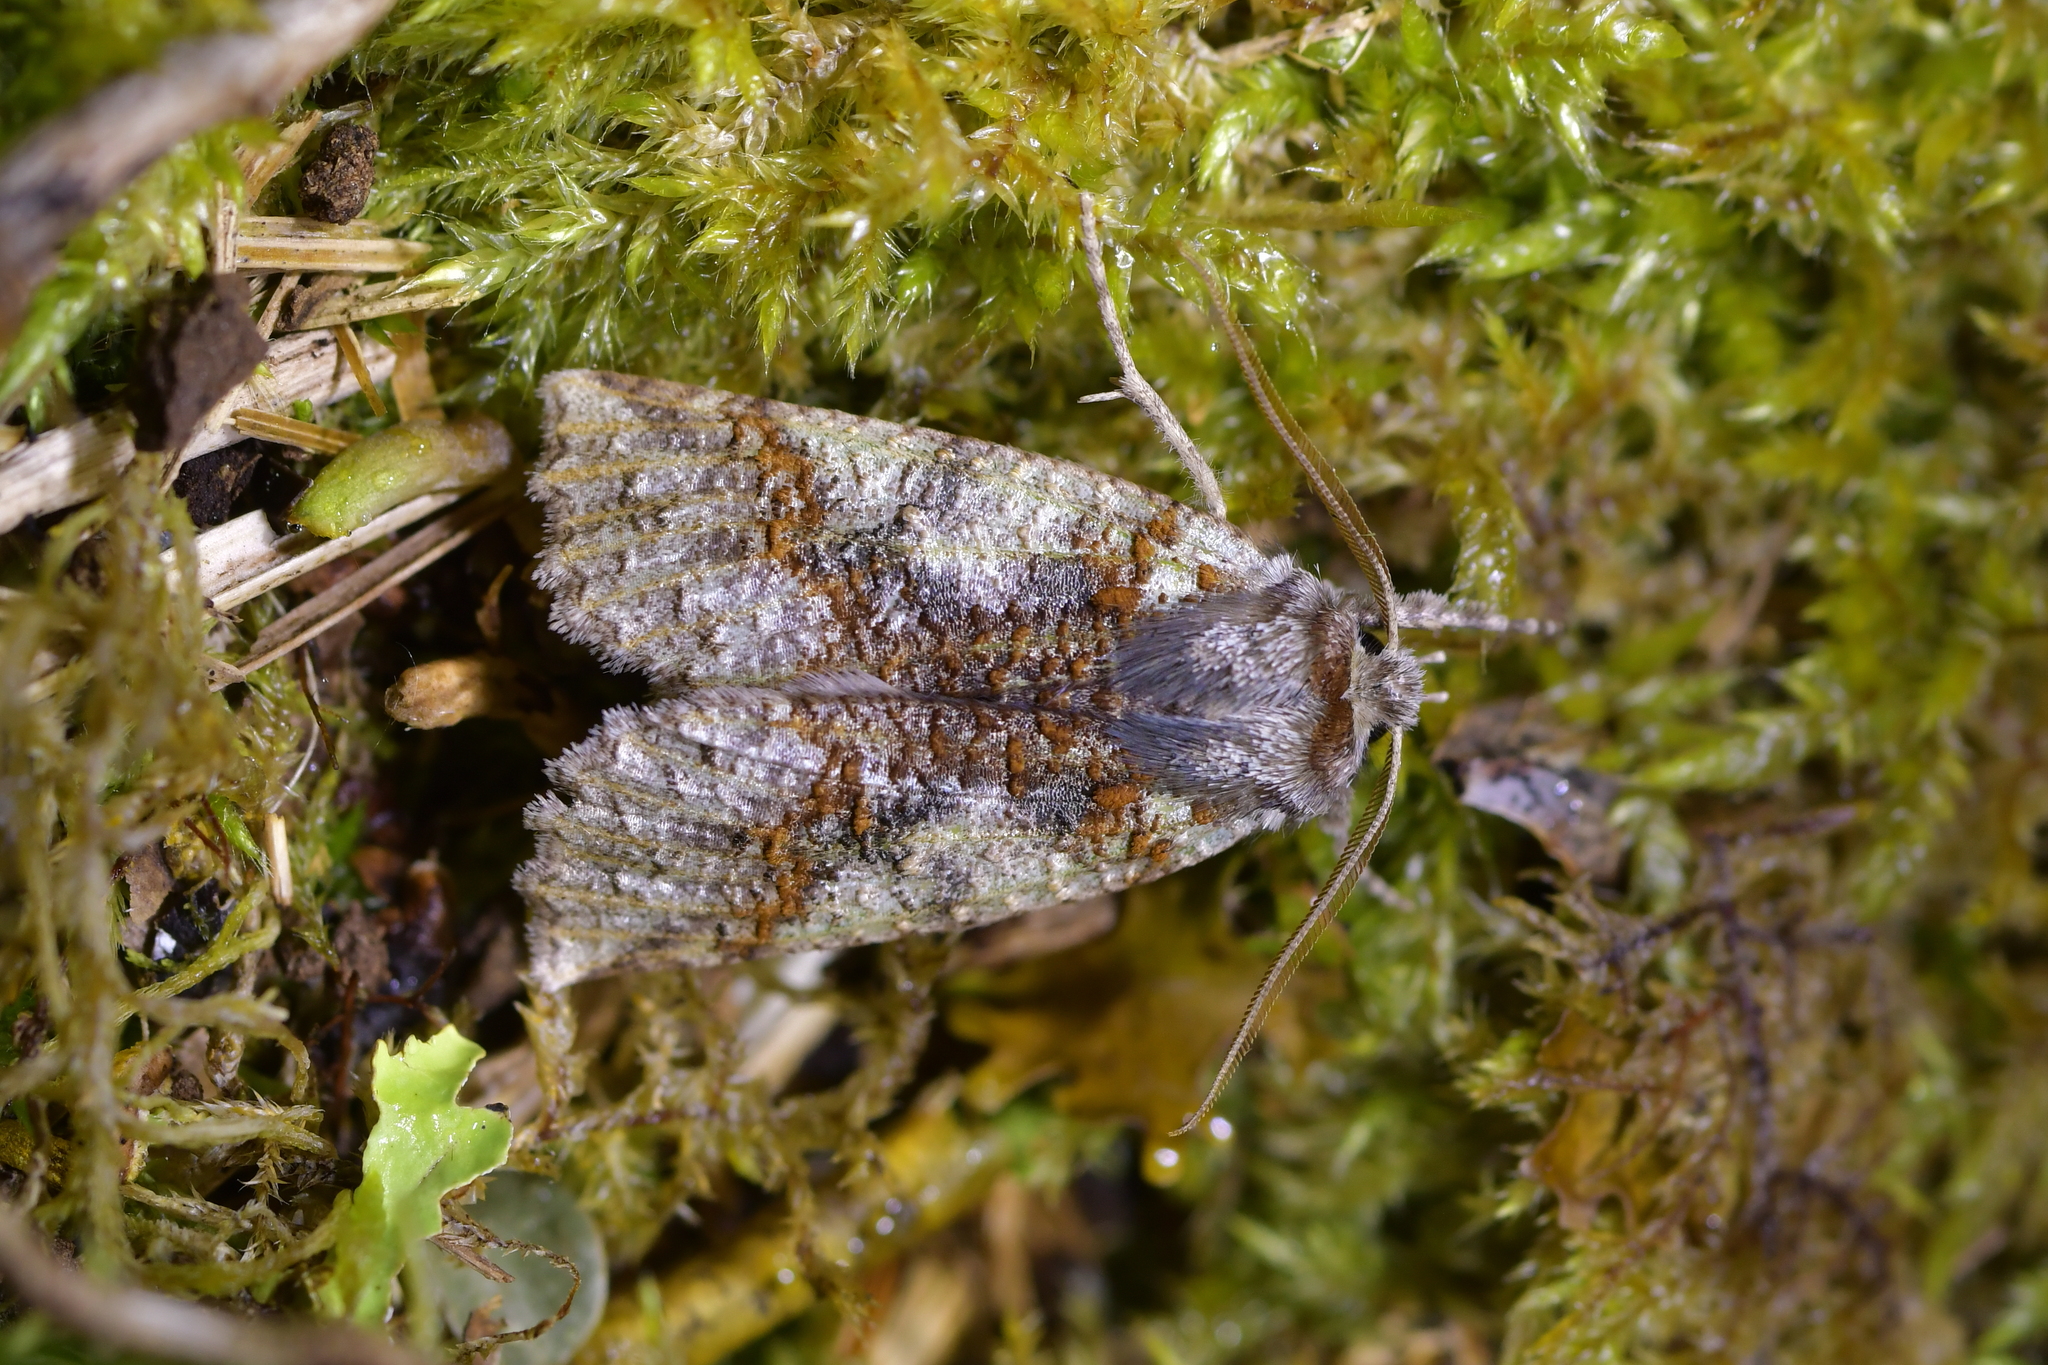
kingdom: Animalia
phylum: Arthropoda
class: Insecta
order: Lepidoptera
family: Geometridae
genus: Declana
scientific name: Declana floccosa
